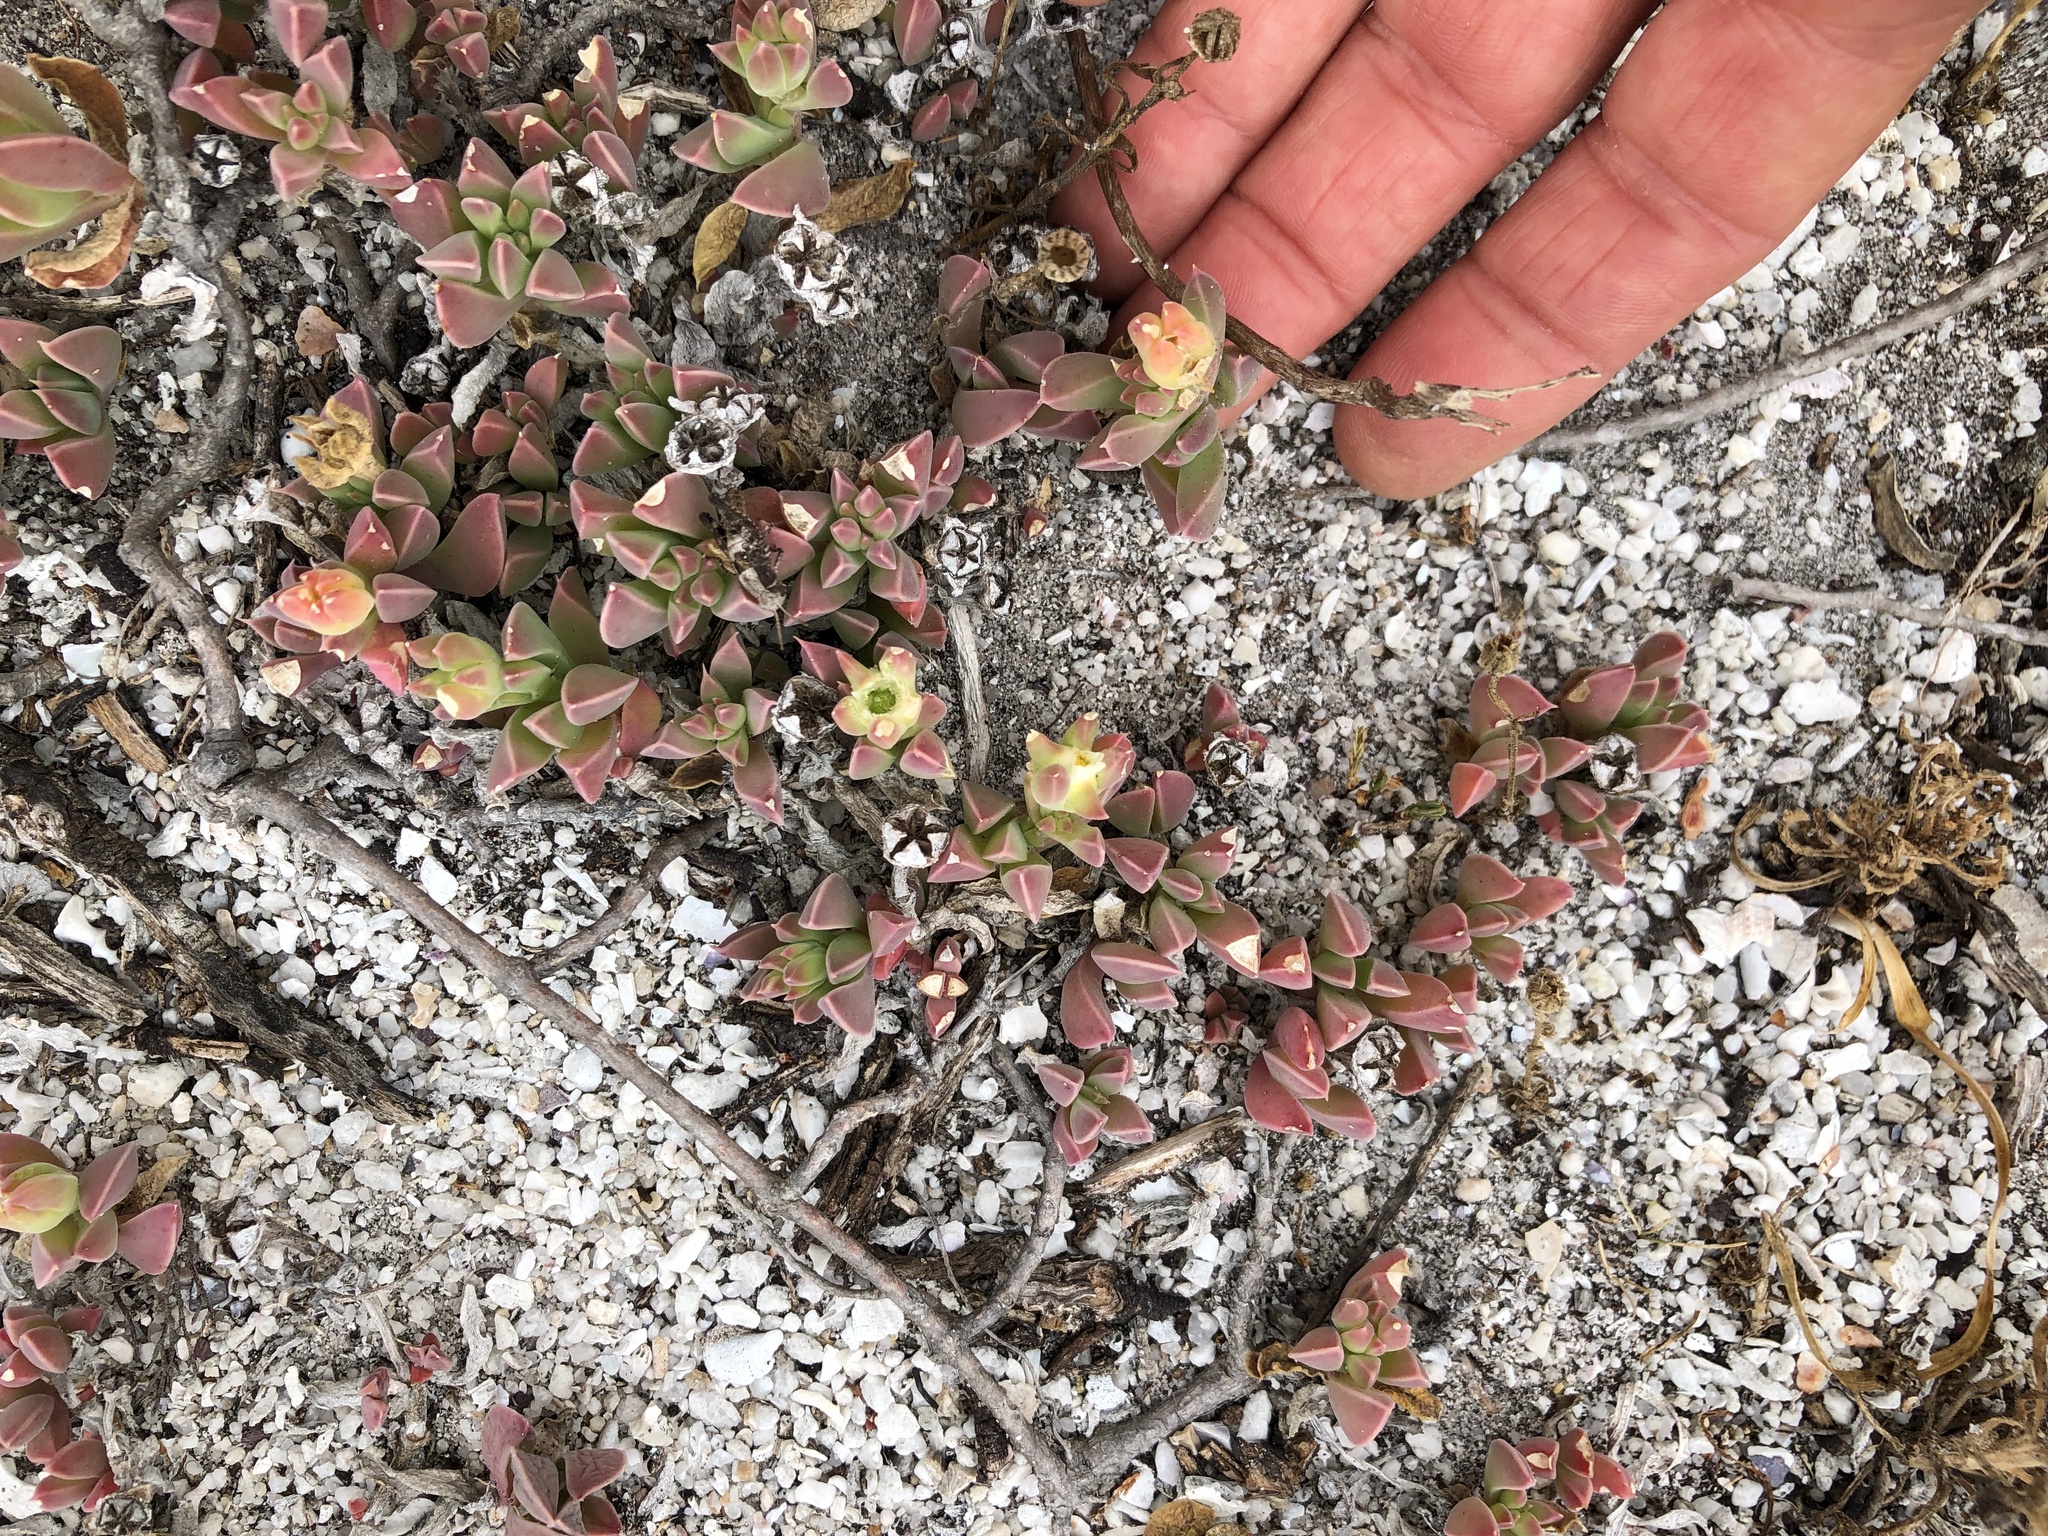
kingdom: Plantae
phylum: Tracheophyta
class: Magnoliopsida
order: Caryophyllales
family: Aizoaceae
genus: Delosperma
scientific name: Delosperma guthriei
